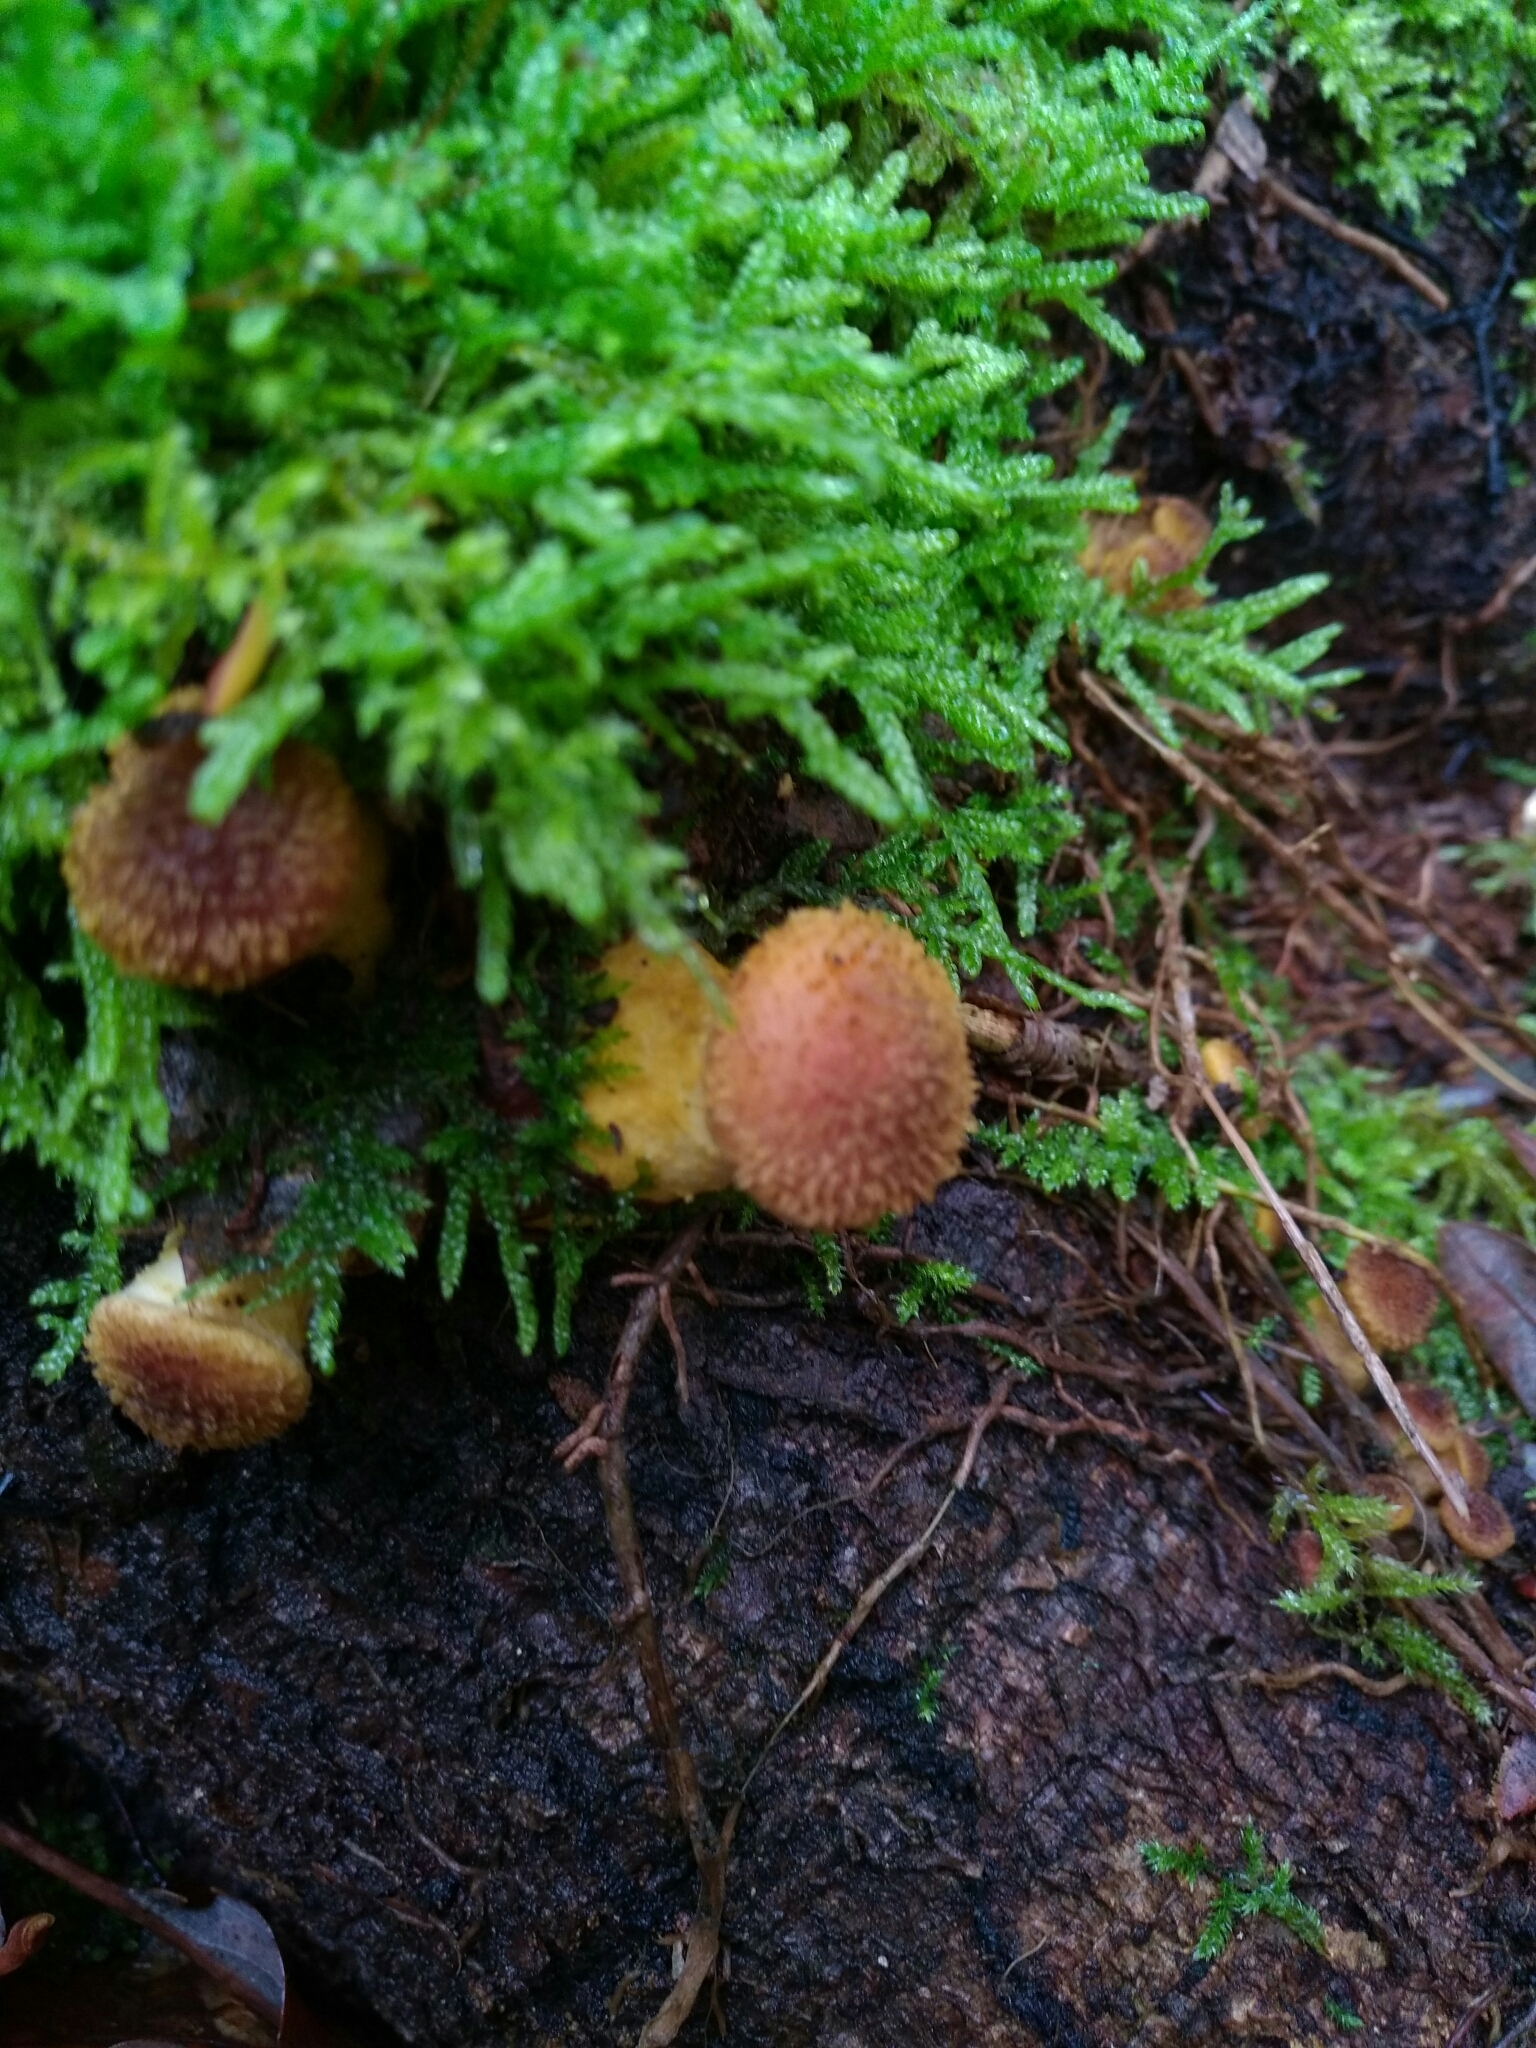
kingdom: Fungi
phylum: Basidiomycota
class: Agaricomycetes
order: Agaricales
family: Physalacriaceae
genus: Armillaria
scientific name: Armillaria gallica
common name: Bulbous honey fungus
